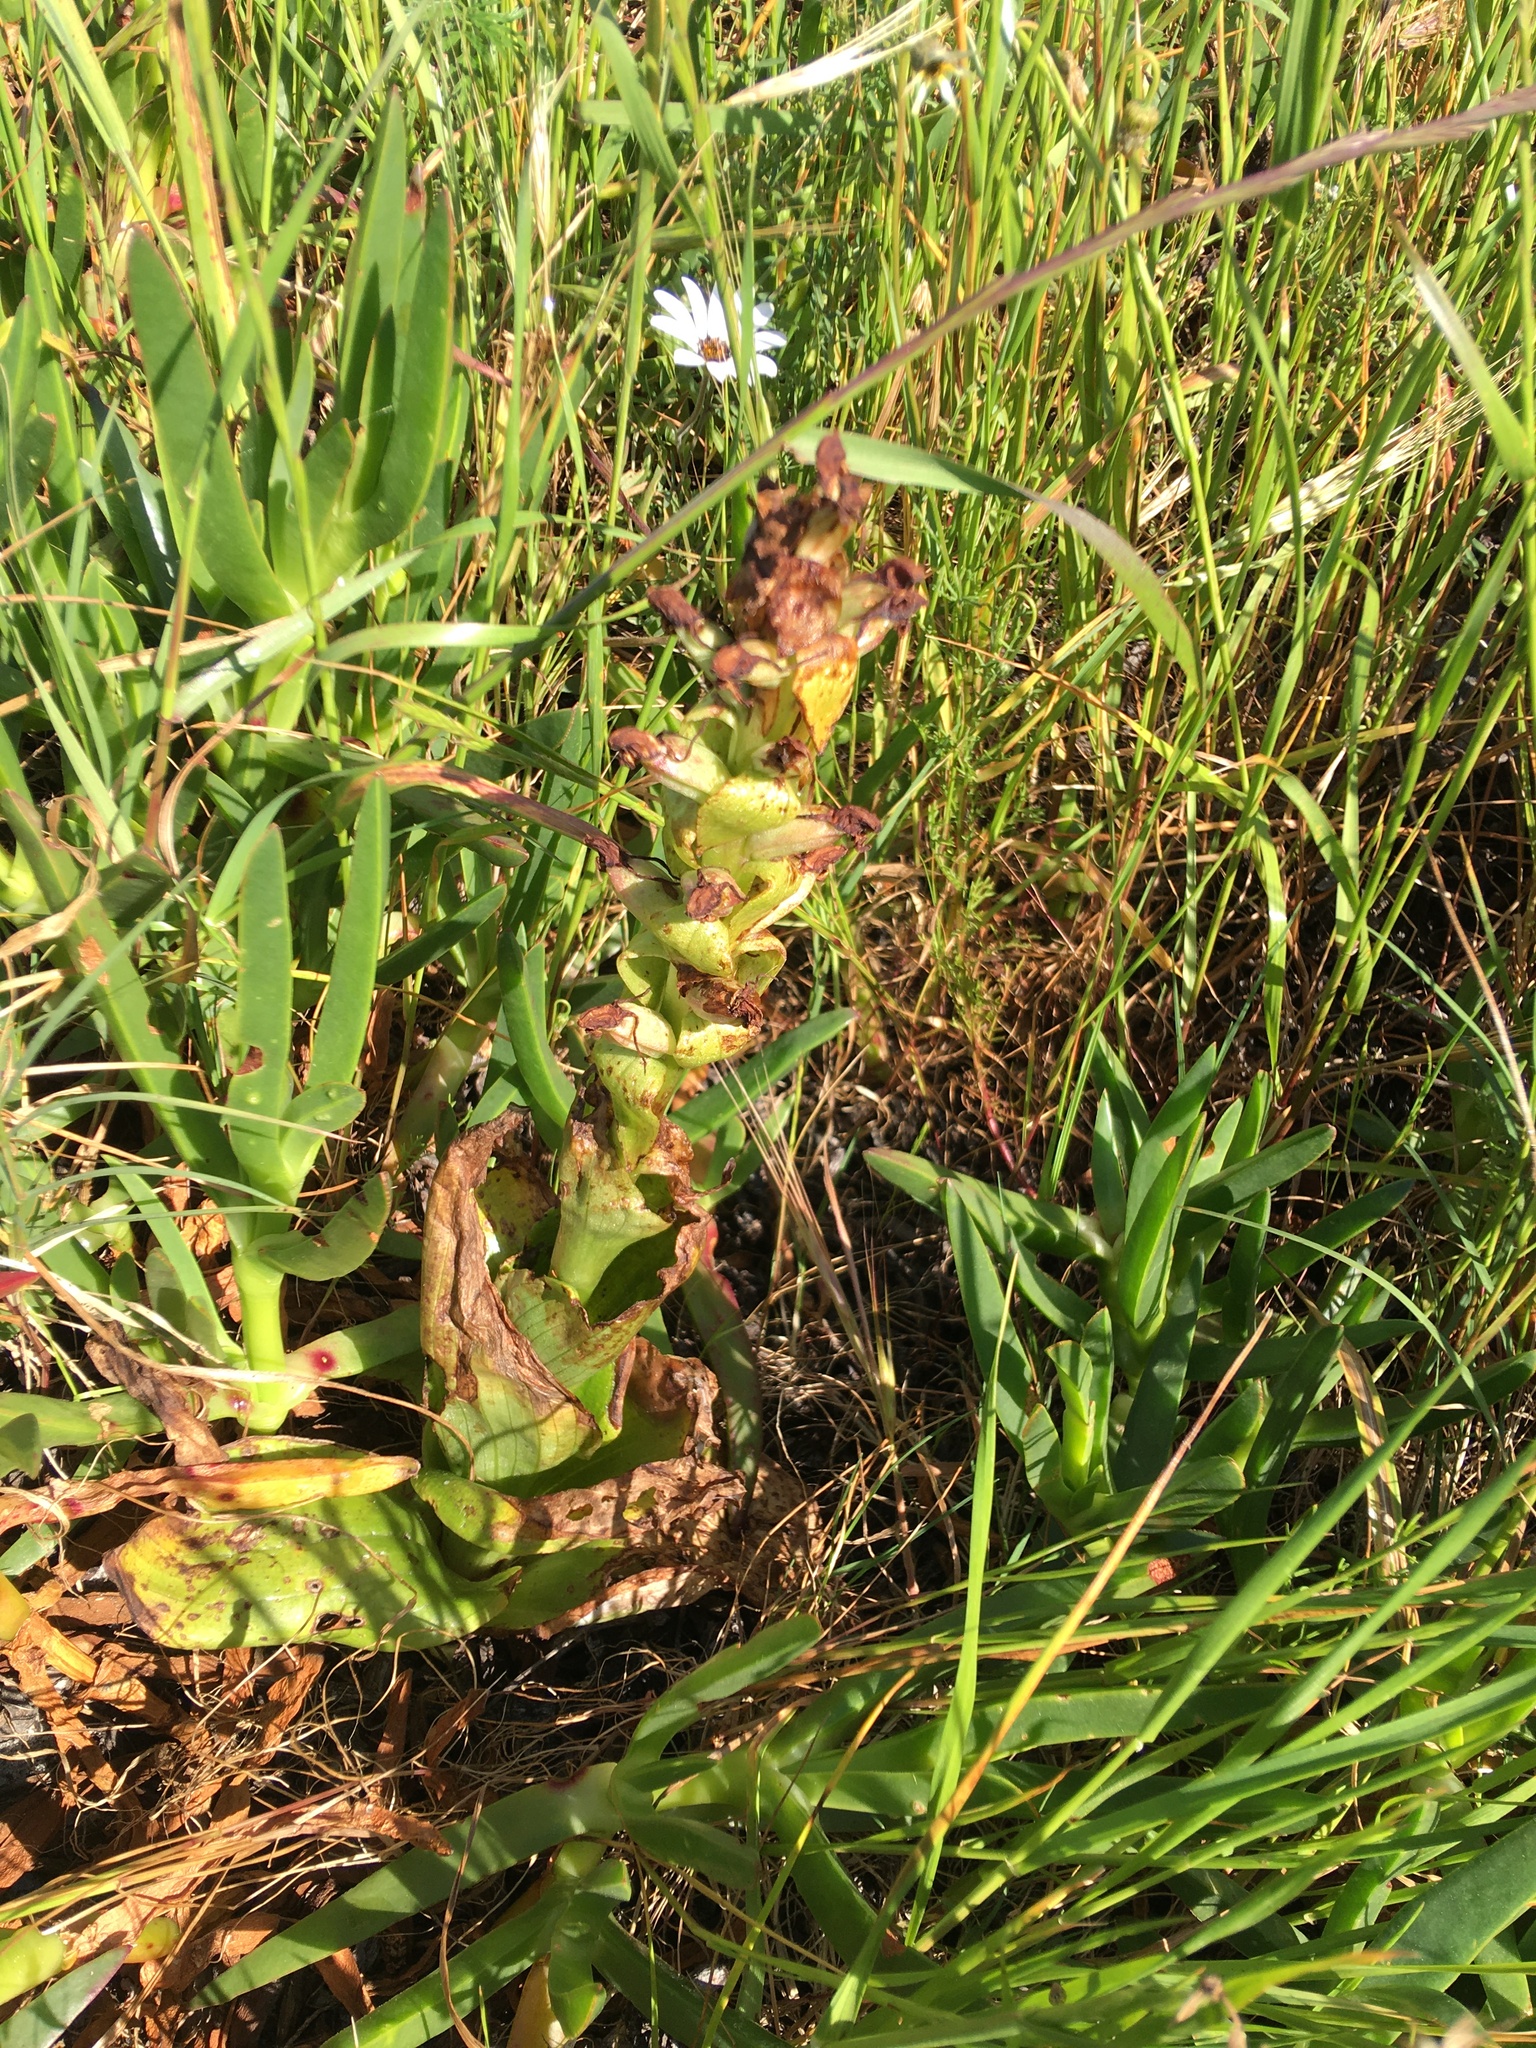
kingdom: Plantae
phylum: Tracheophyta
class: Liliopsida
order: Asparagales
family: Orchidaceae
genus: Satyrium
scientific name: Satyrium odorum
